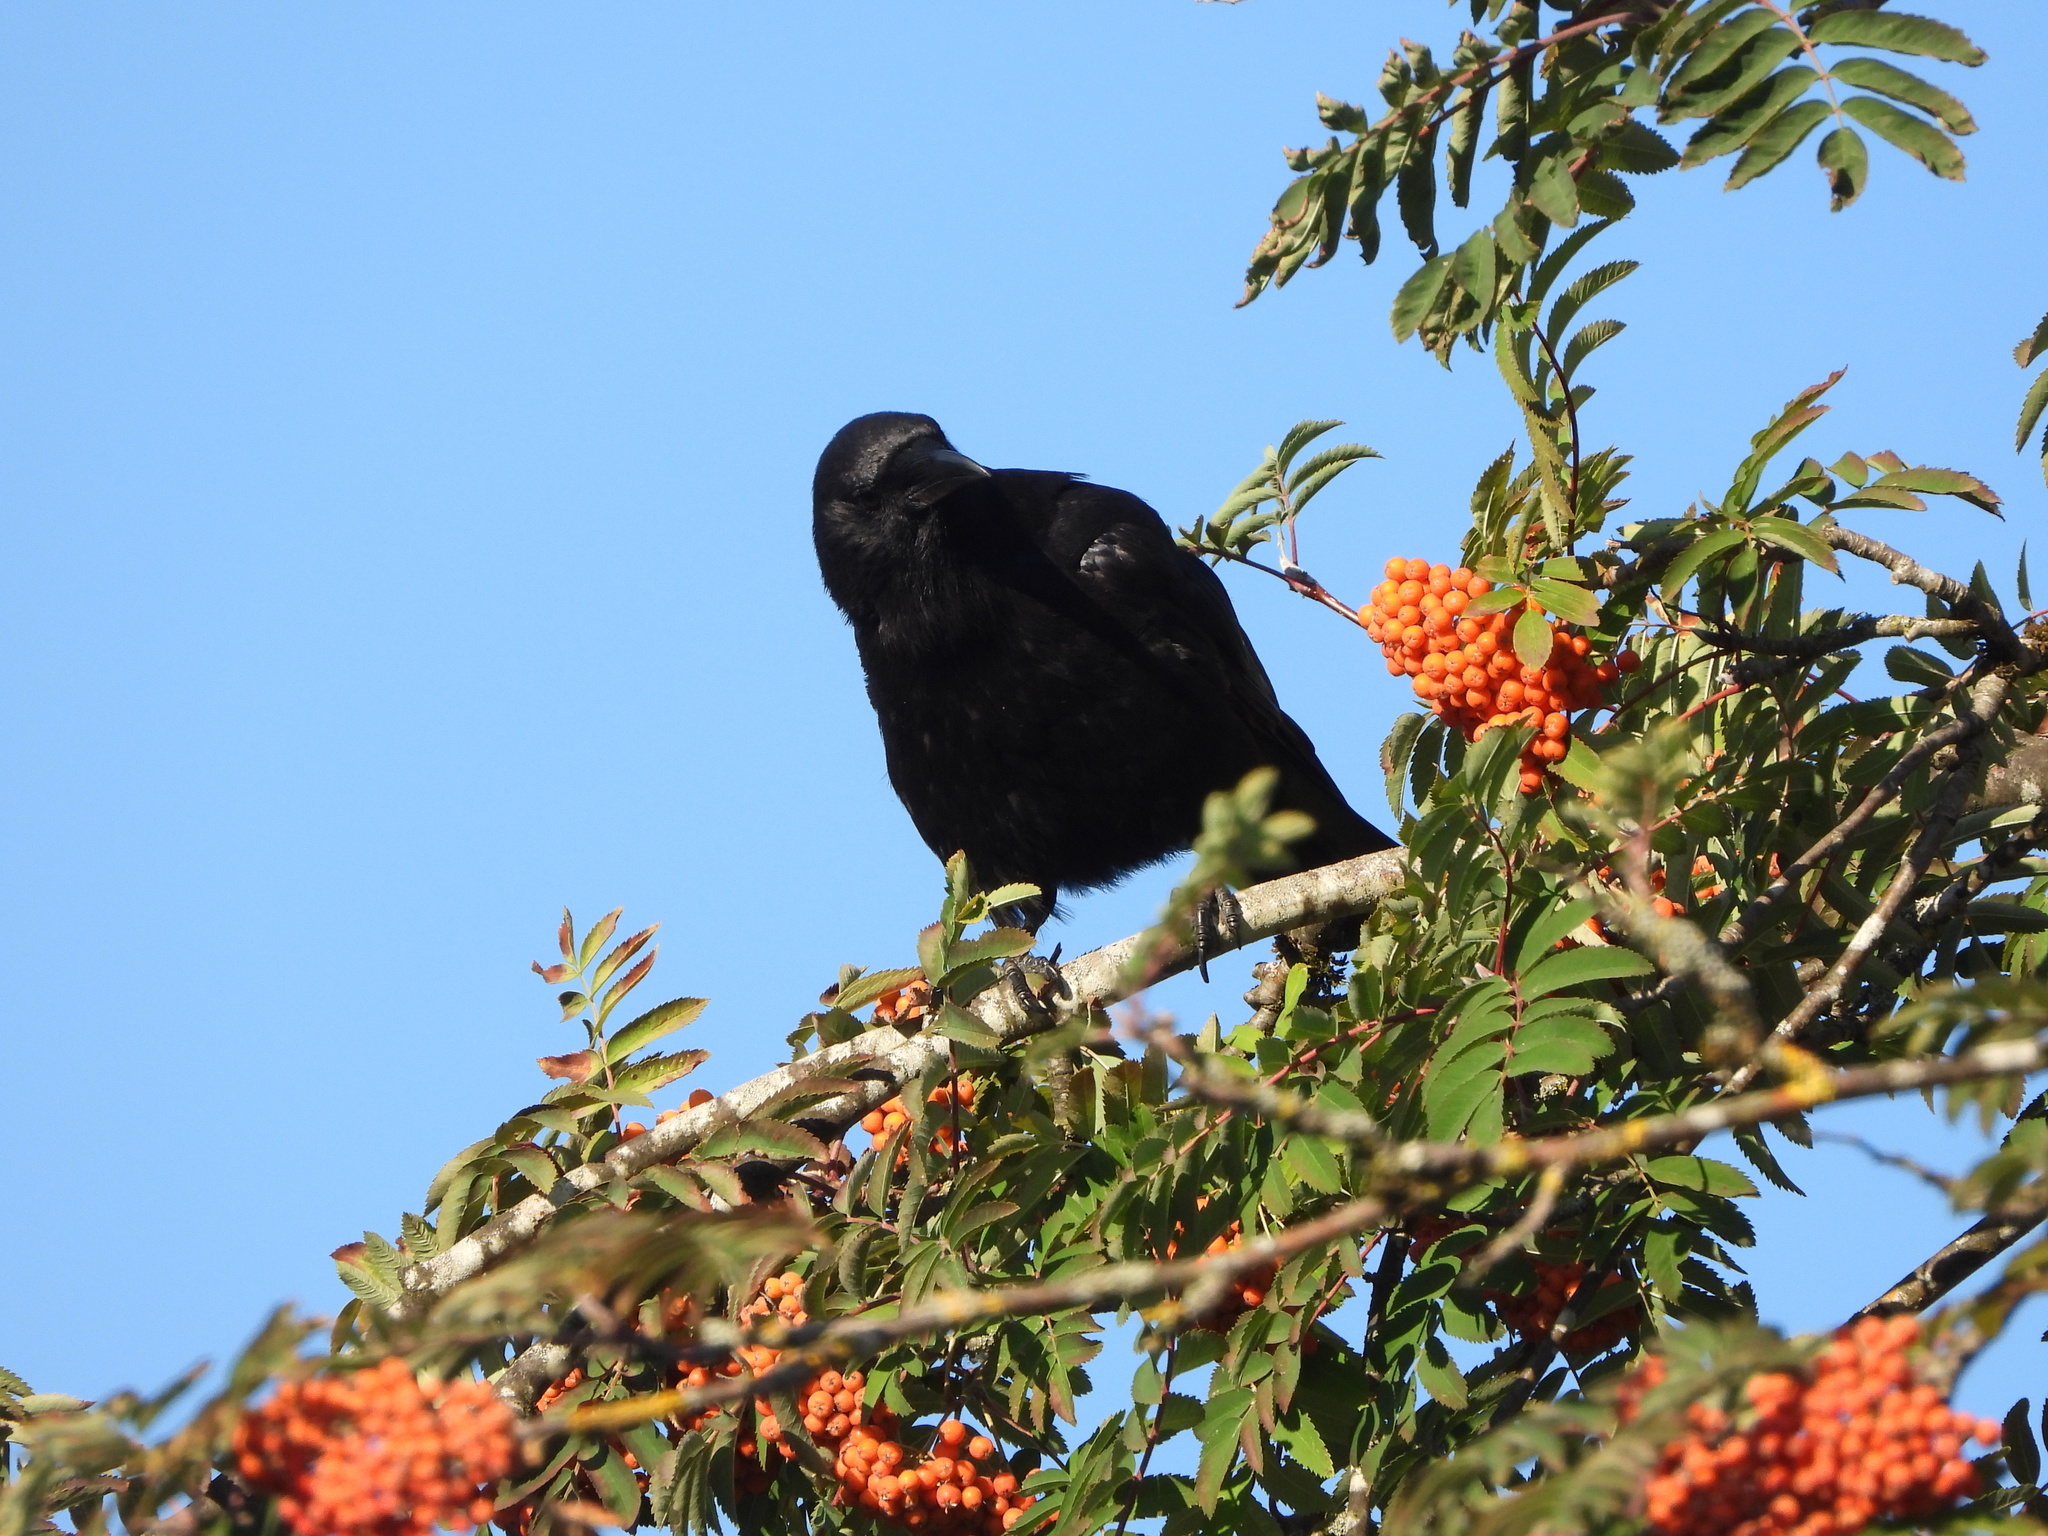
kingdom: Animalia
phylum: Chordata
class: Aves
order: Passeriformes
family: Corvidae
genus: Corvus
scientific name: Corvus brachyrhynchos
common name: American crow
